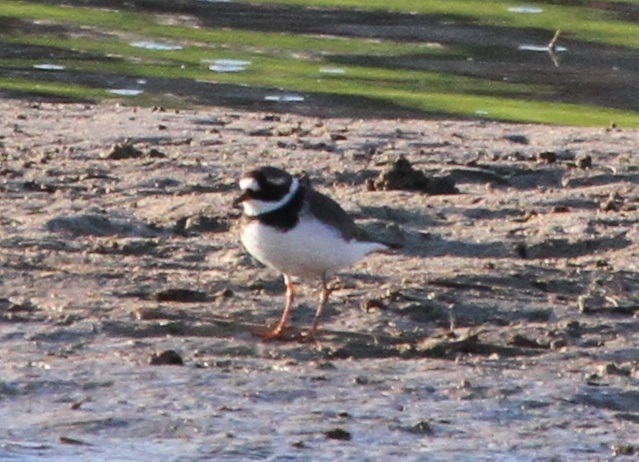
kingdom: Animalia
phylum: Chordata
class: Aves
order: Charadriiformes
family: Charadriidae
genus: Charadrius
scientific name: Charadrius hiaticula
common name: Common ringed plover
